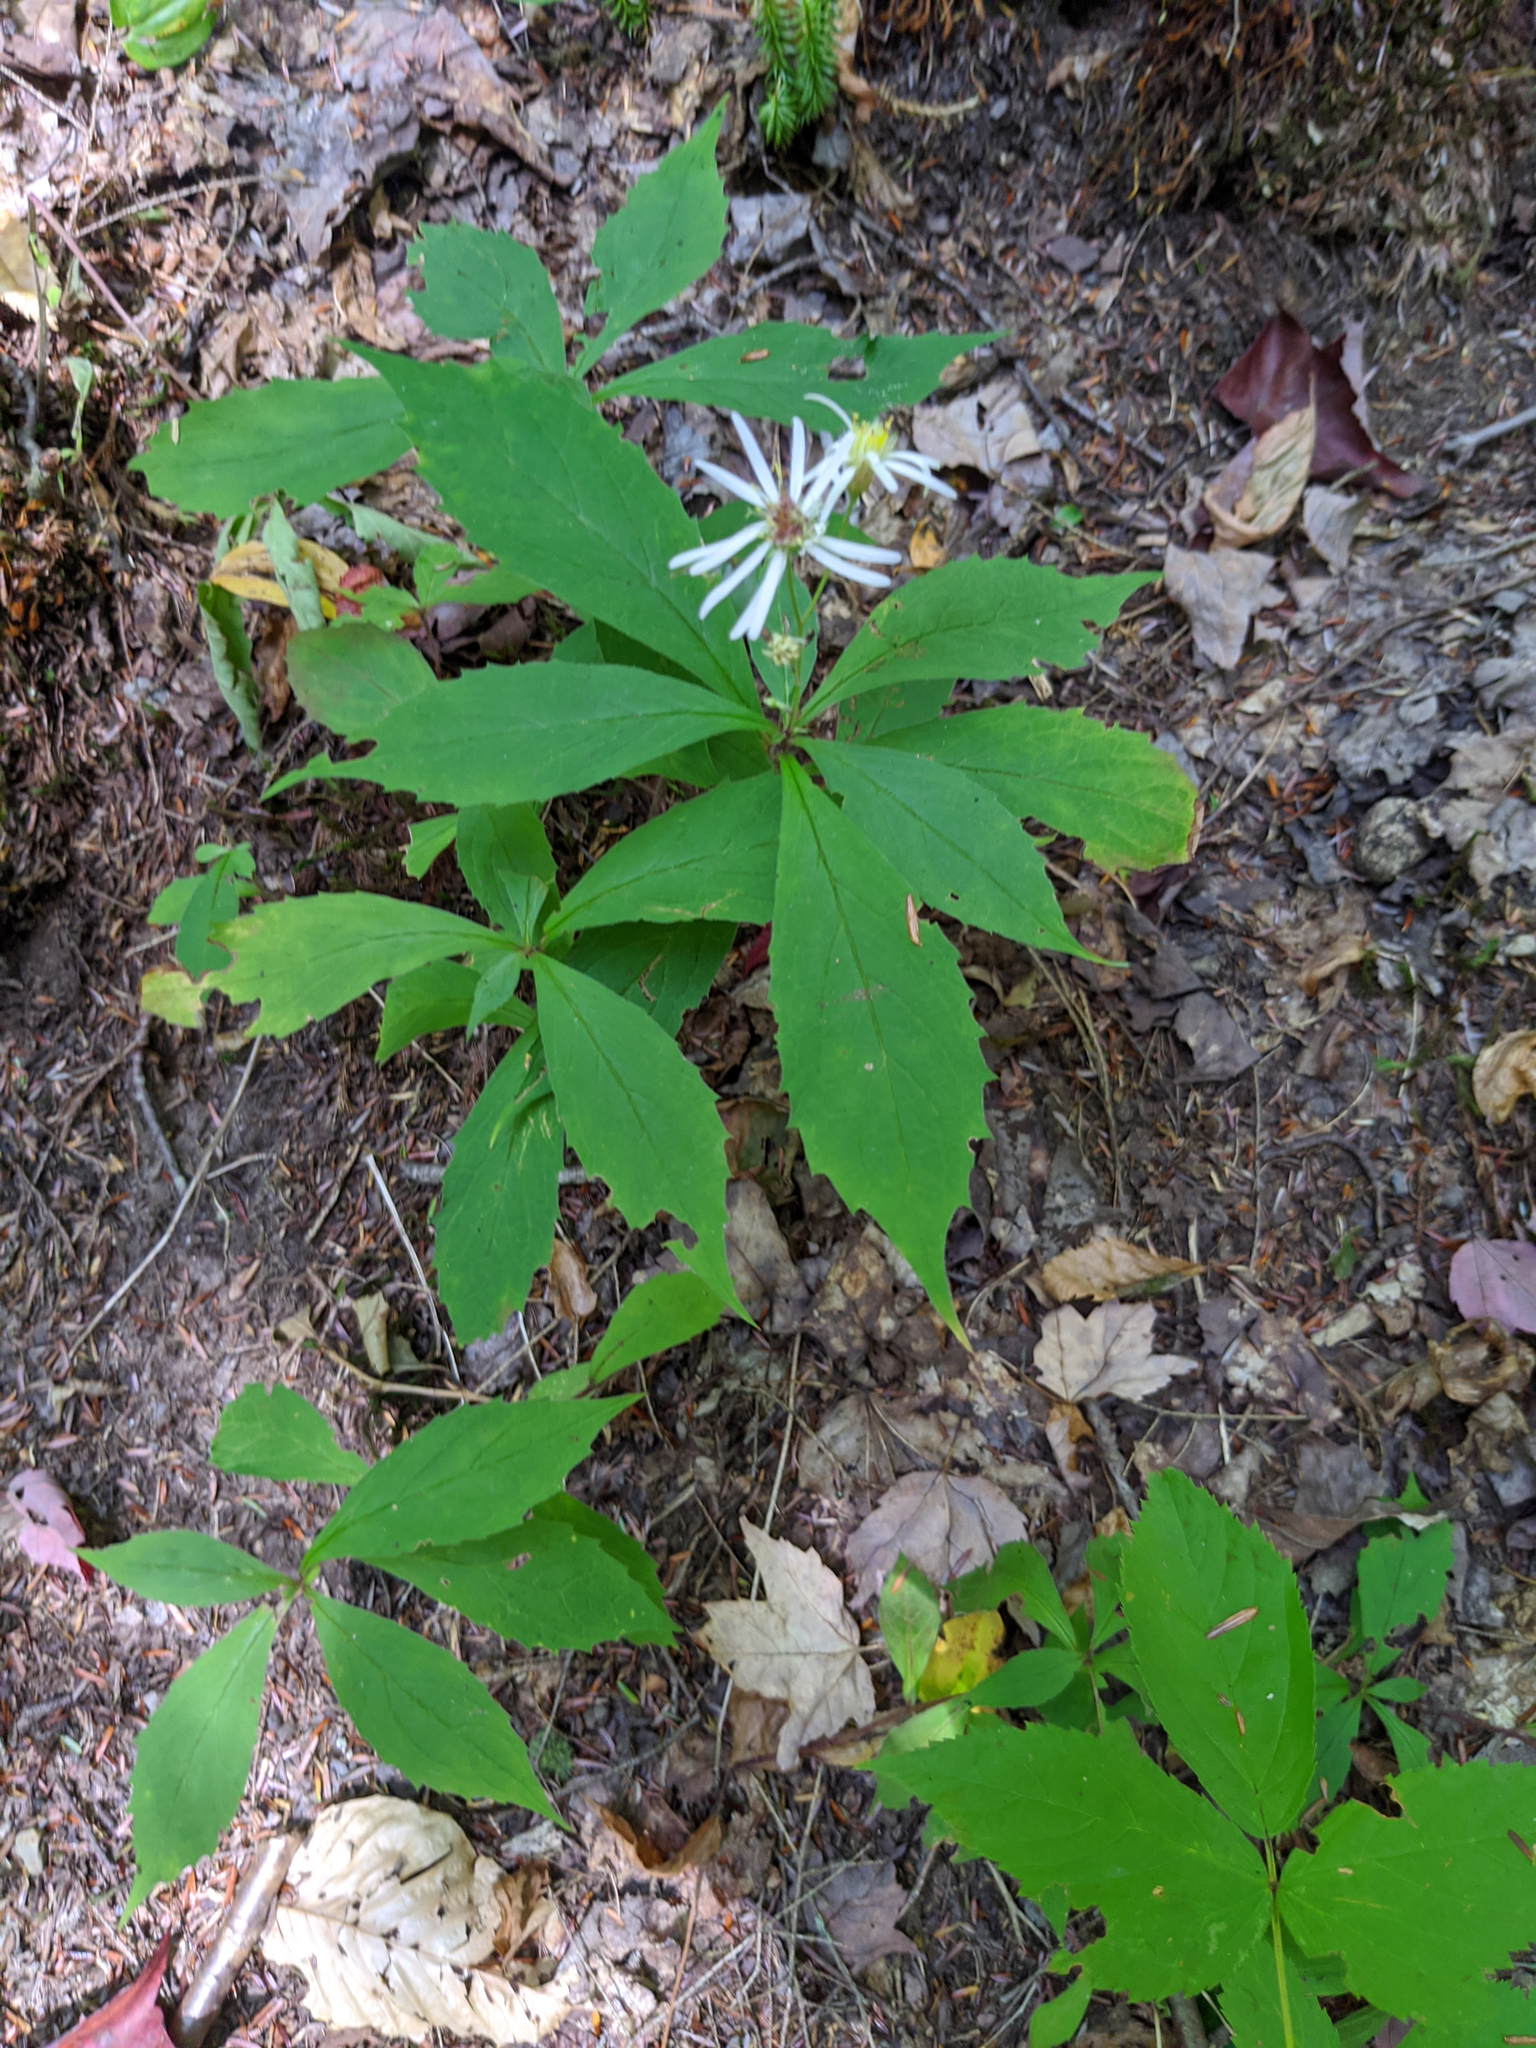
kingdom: Plantae
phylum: Tracheophyta
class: Magnoliopsida
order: Asterales
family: Asteraceae
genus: Oclemena
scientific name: Oclemena acuminata
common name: Mountain aster
